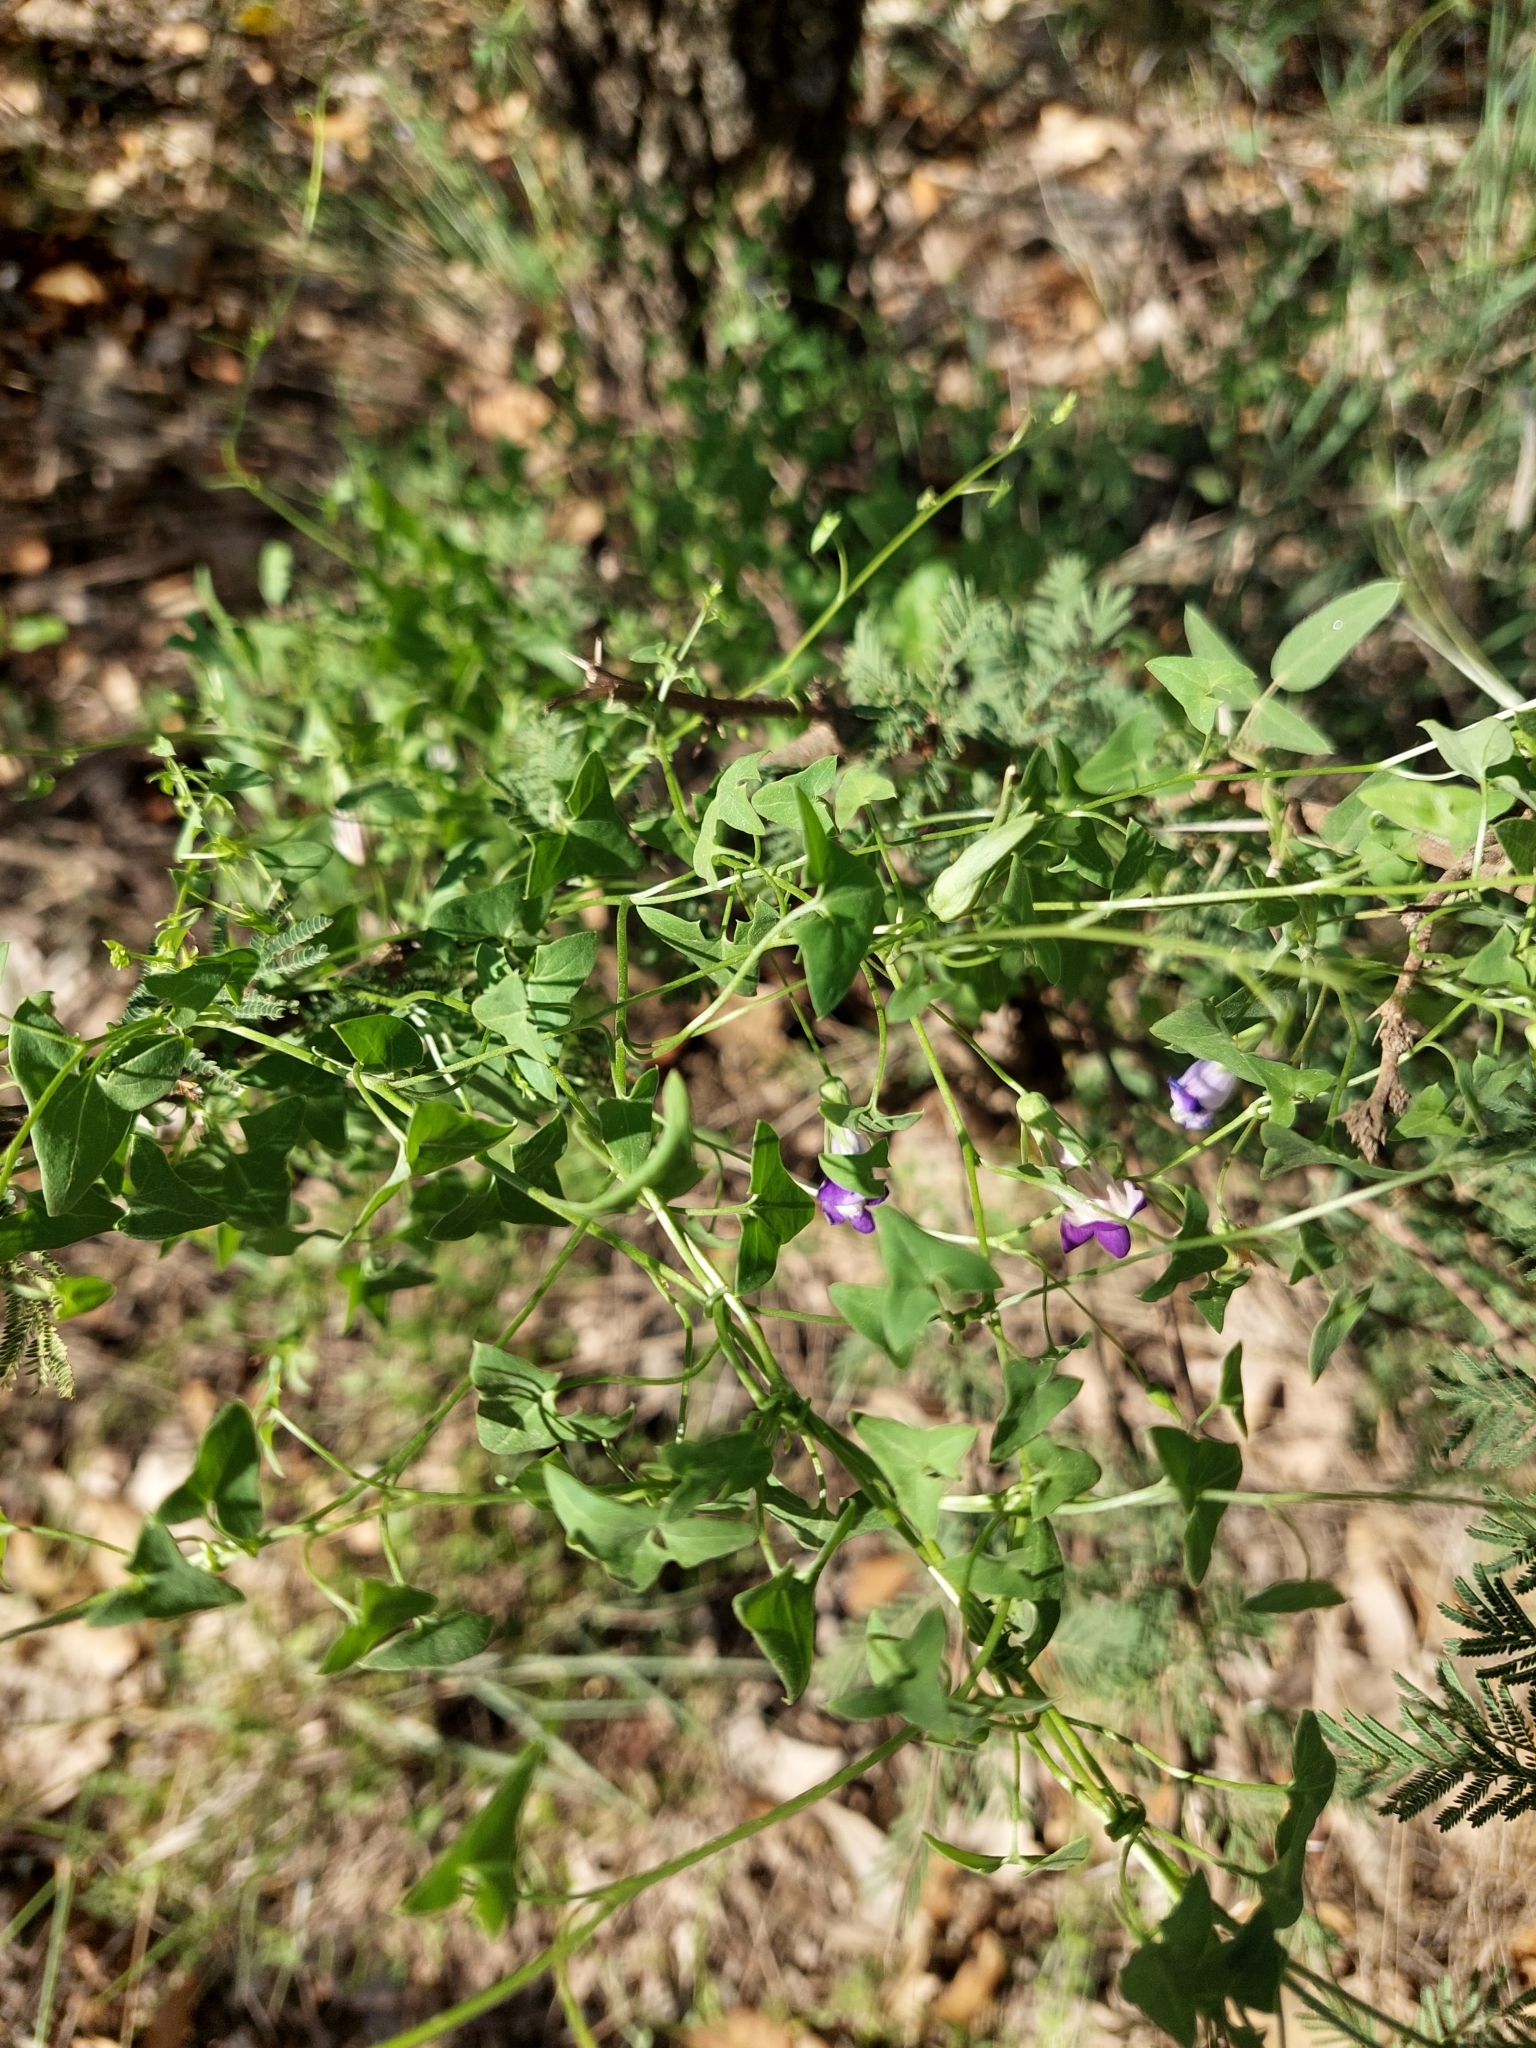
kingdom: Plantae
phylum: Tracheophyta
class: Magnoliopsida
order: Lamiales
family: Plantaginaceae
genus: Maurandella
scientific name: Maurandella antirrhiniflora
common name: Violet twining-snapdragon
